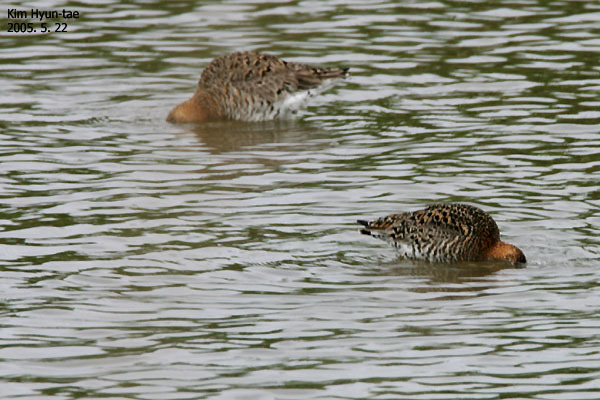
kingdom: Animalia
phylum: Chordata
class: Aves
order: Charadriiformes
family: Scolopacidae
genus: Limosa
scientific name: Limosa limosa
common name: Black-tailed godwit
